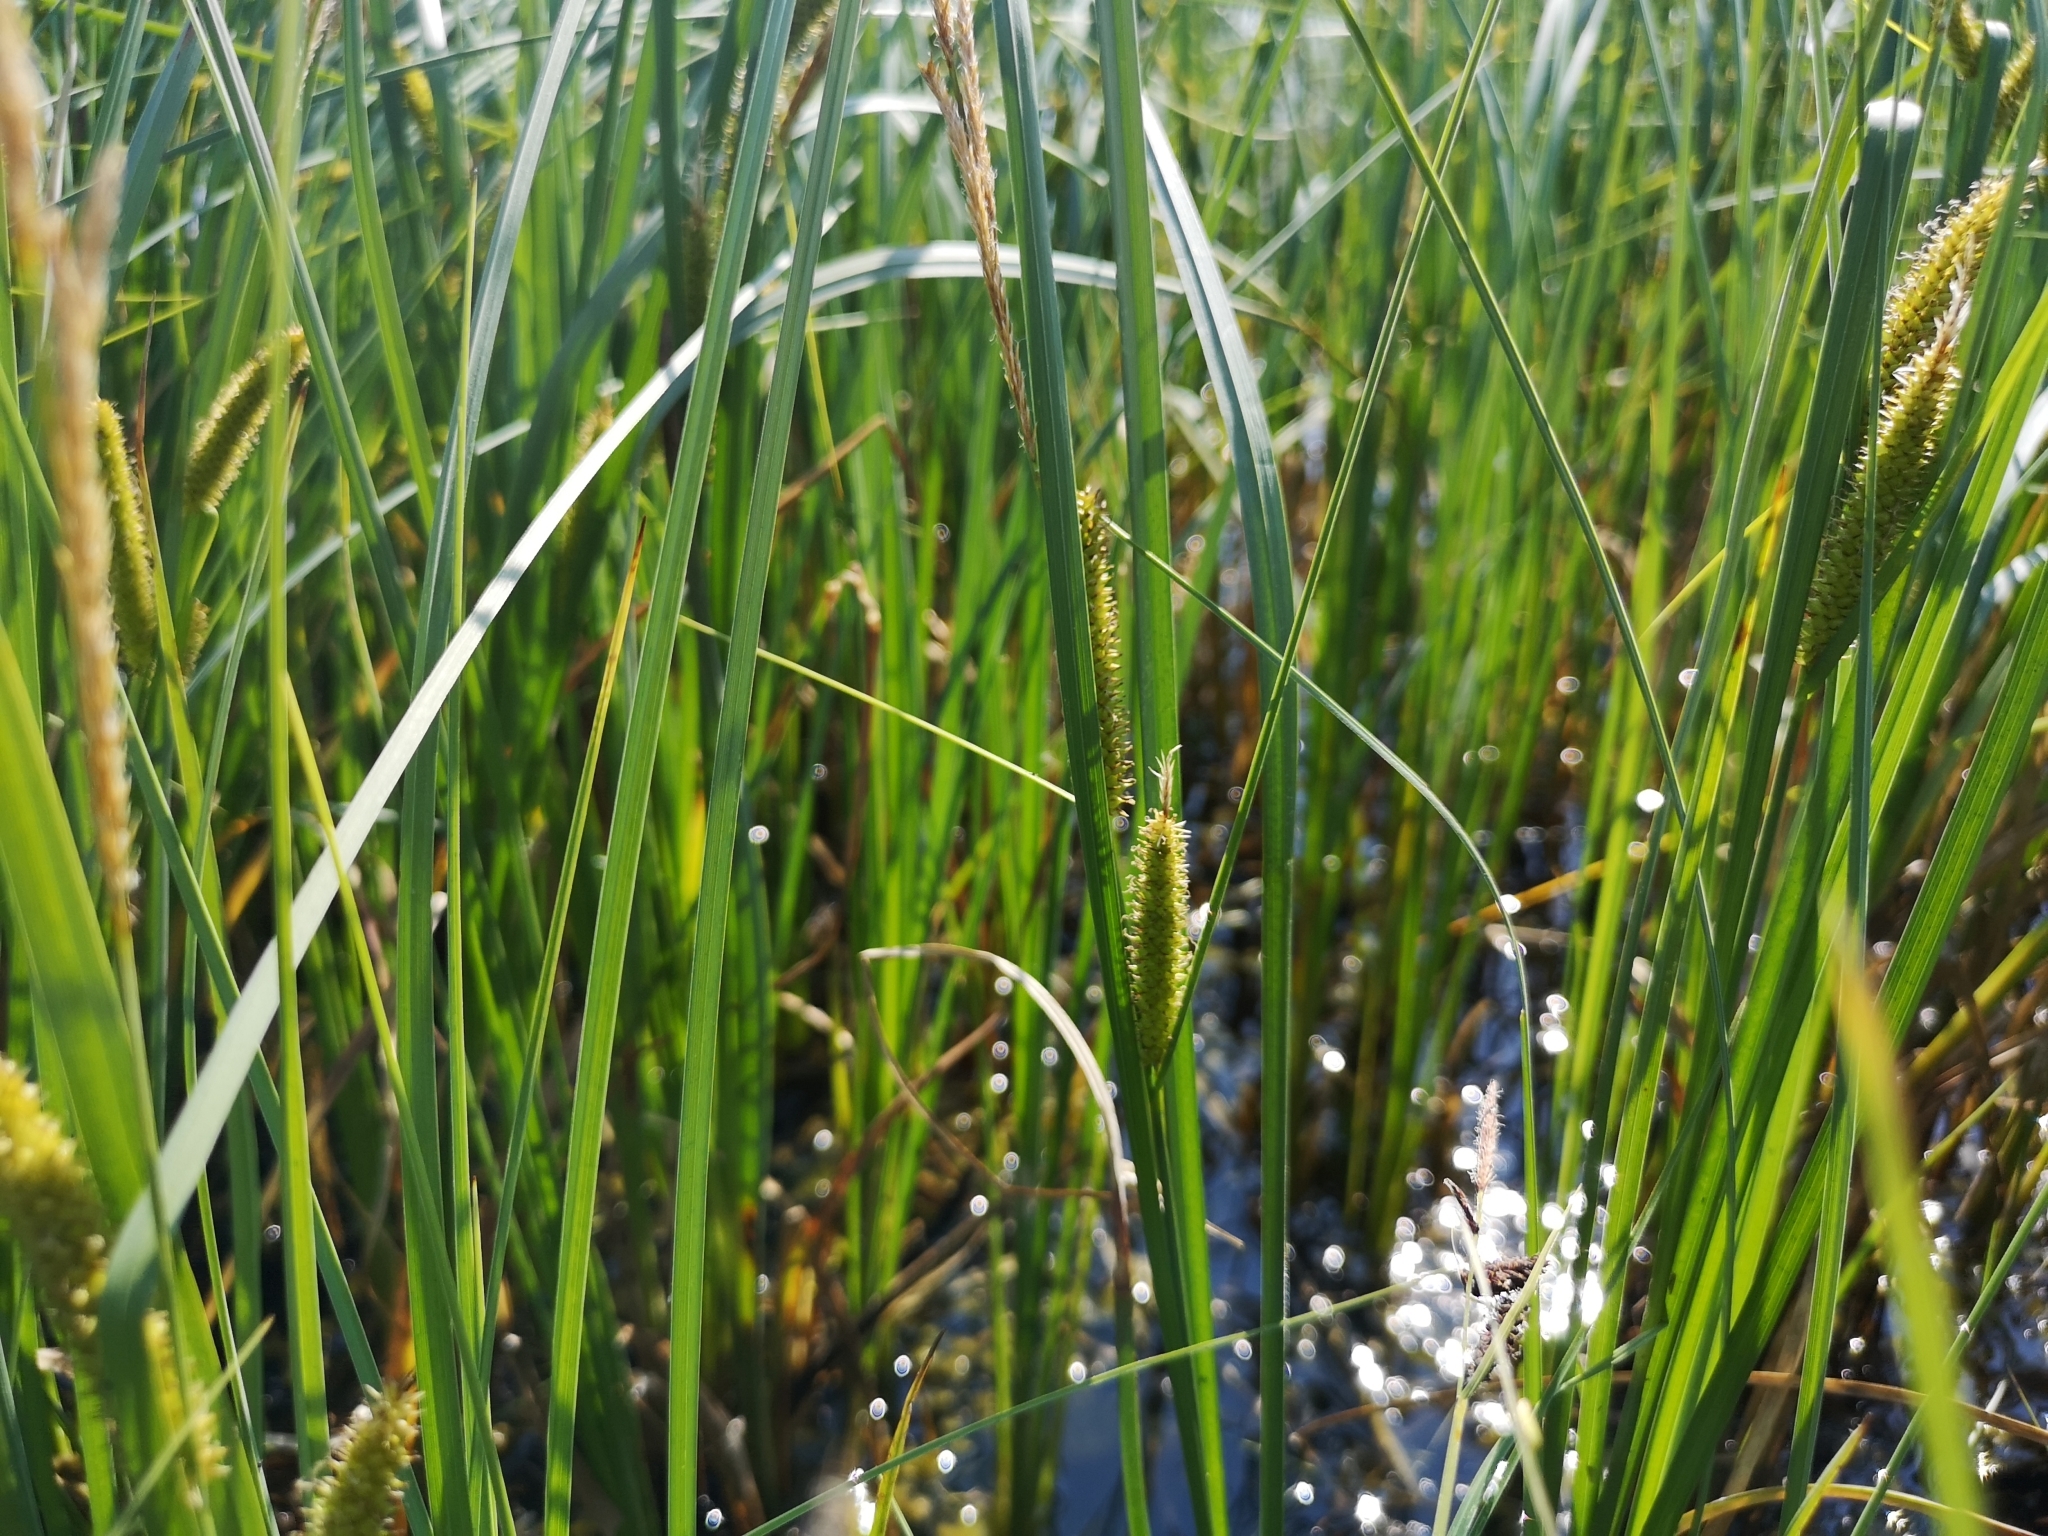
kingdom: Plantae
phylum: Tracheophyta
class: Liliopsida
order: Poales
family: Cyperaceae
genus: Carex
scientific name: Carex rostrata
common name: Bottle sedge
